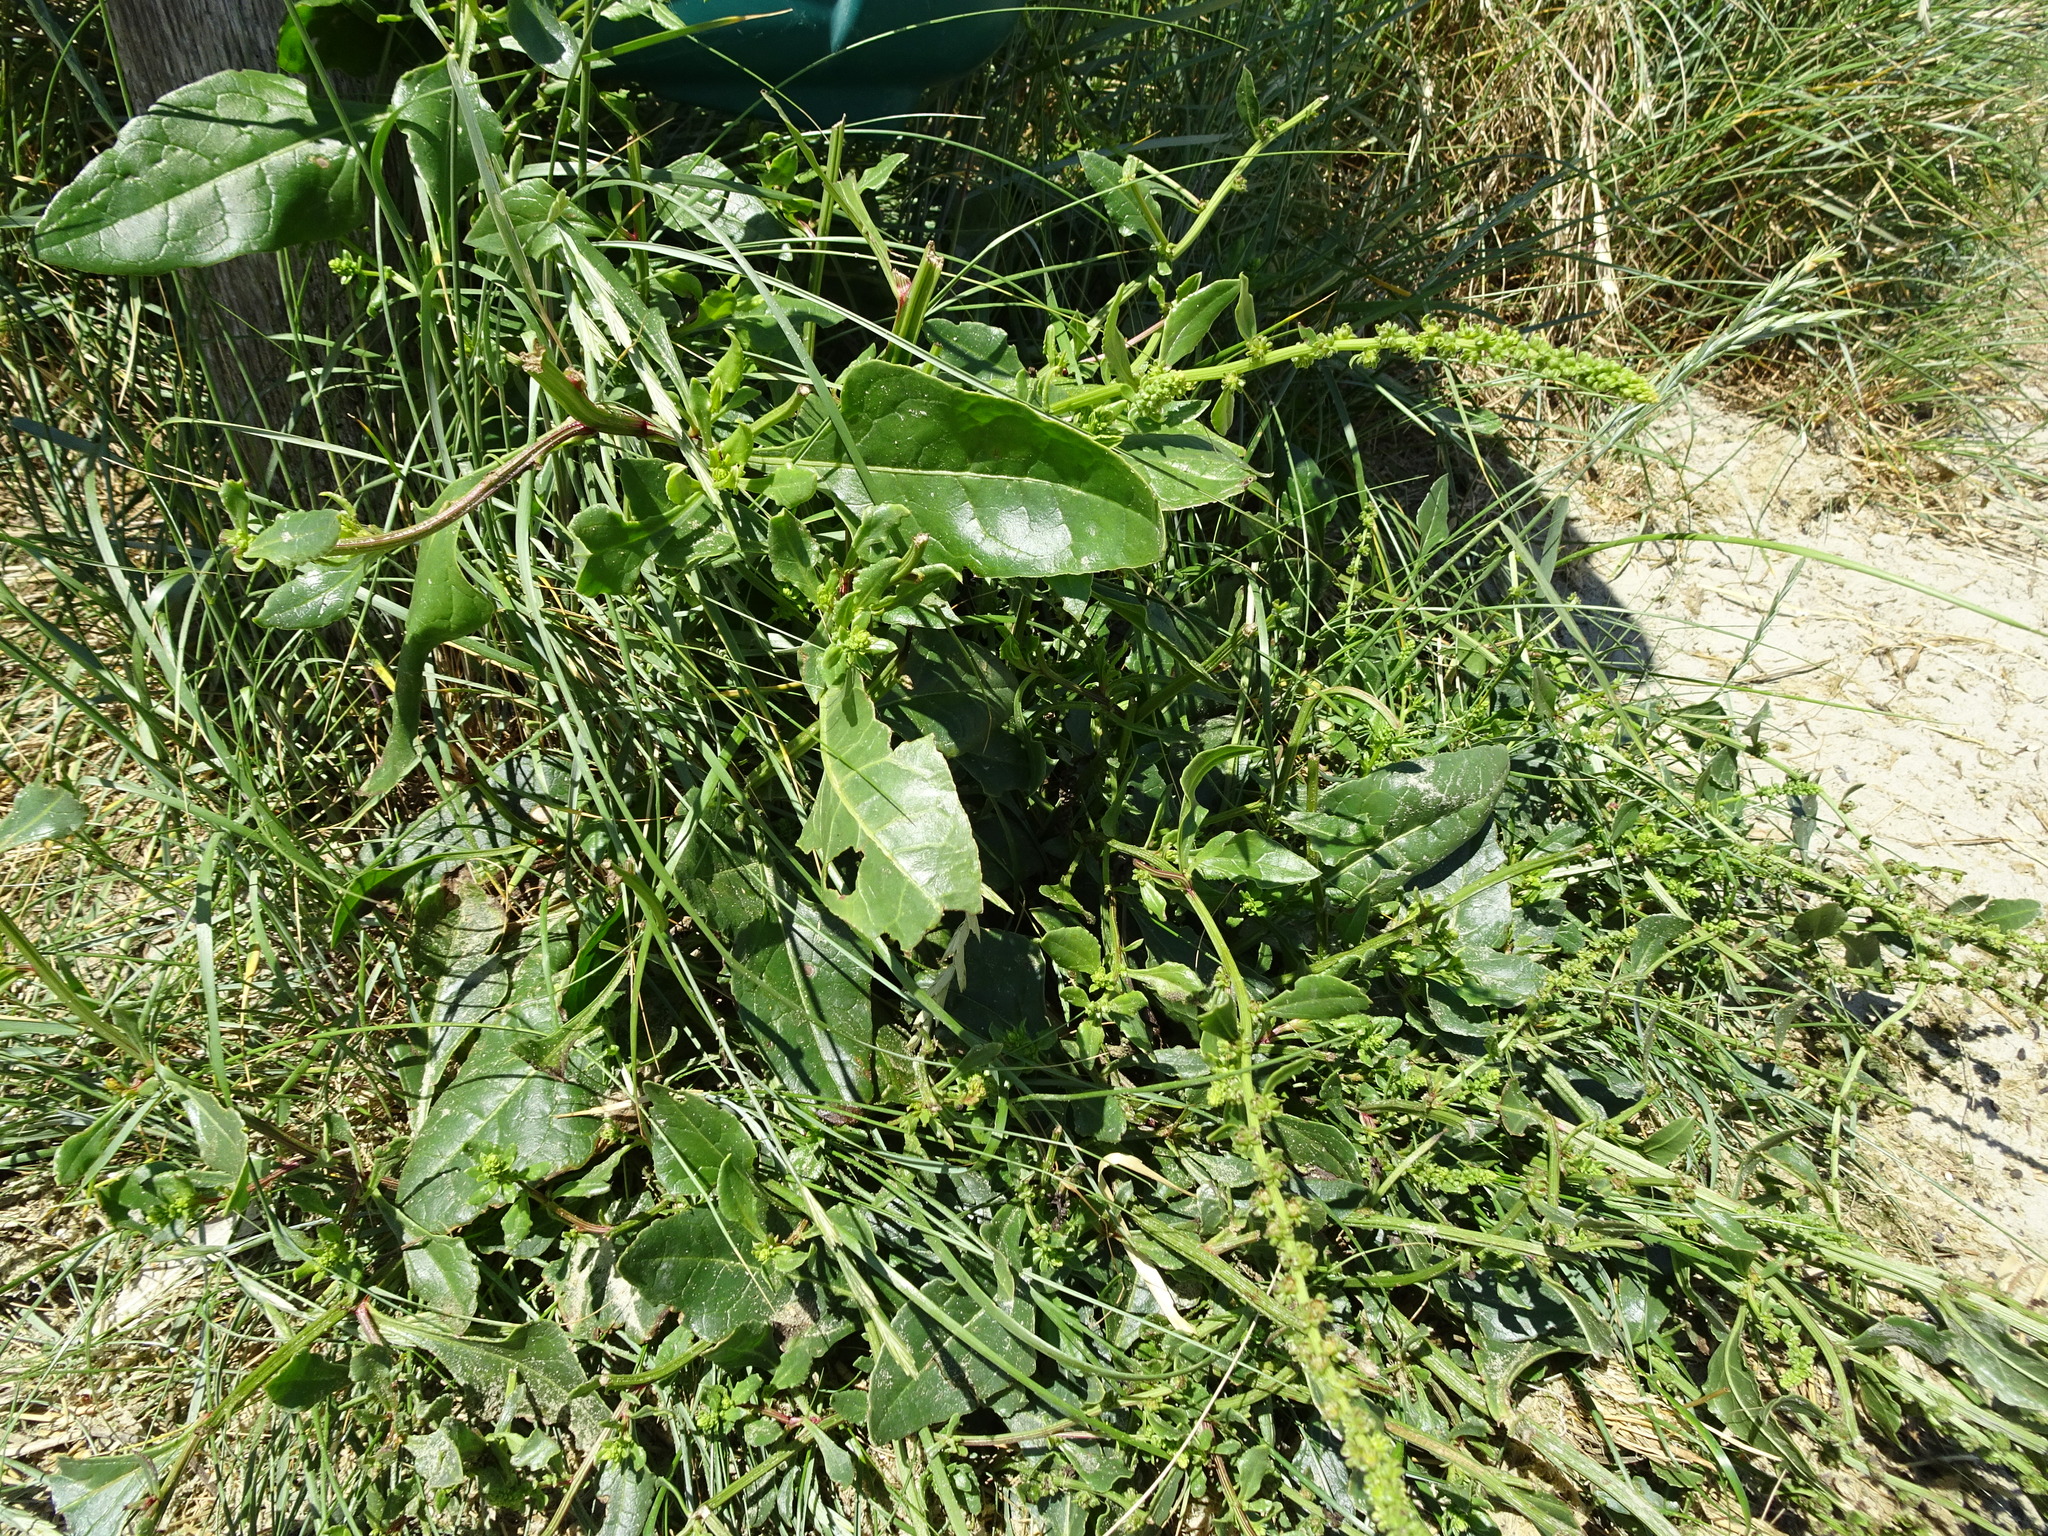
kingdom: Plantae
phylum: Tracheophyta
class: Magnoliopsida
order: Caryophyllales
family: Amaranthaceae
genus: Beta
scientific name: Beta vulgaris
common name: Beet
